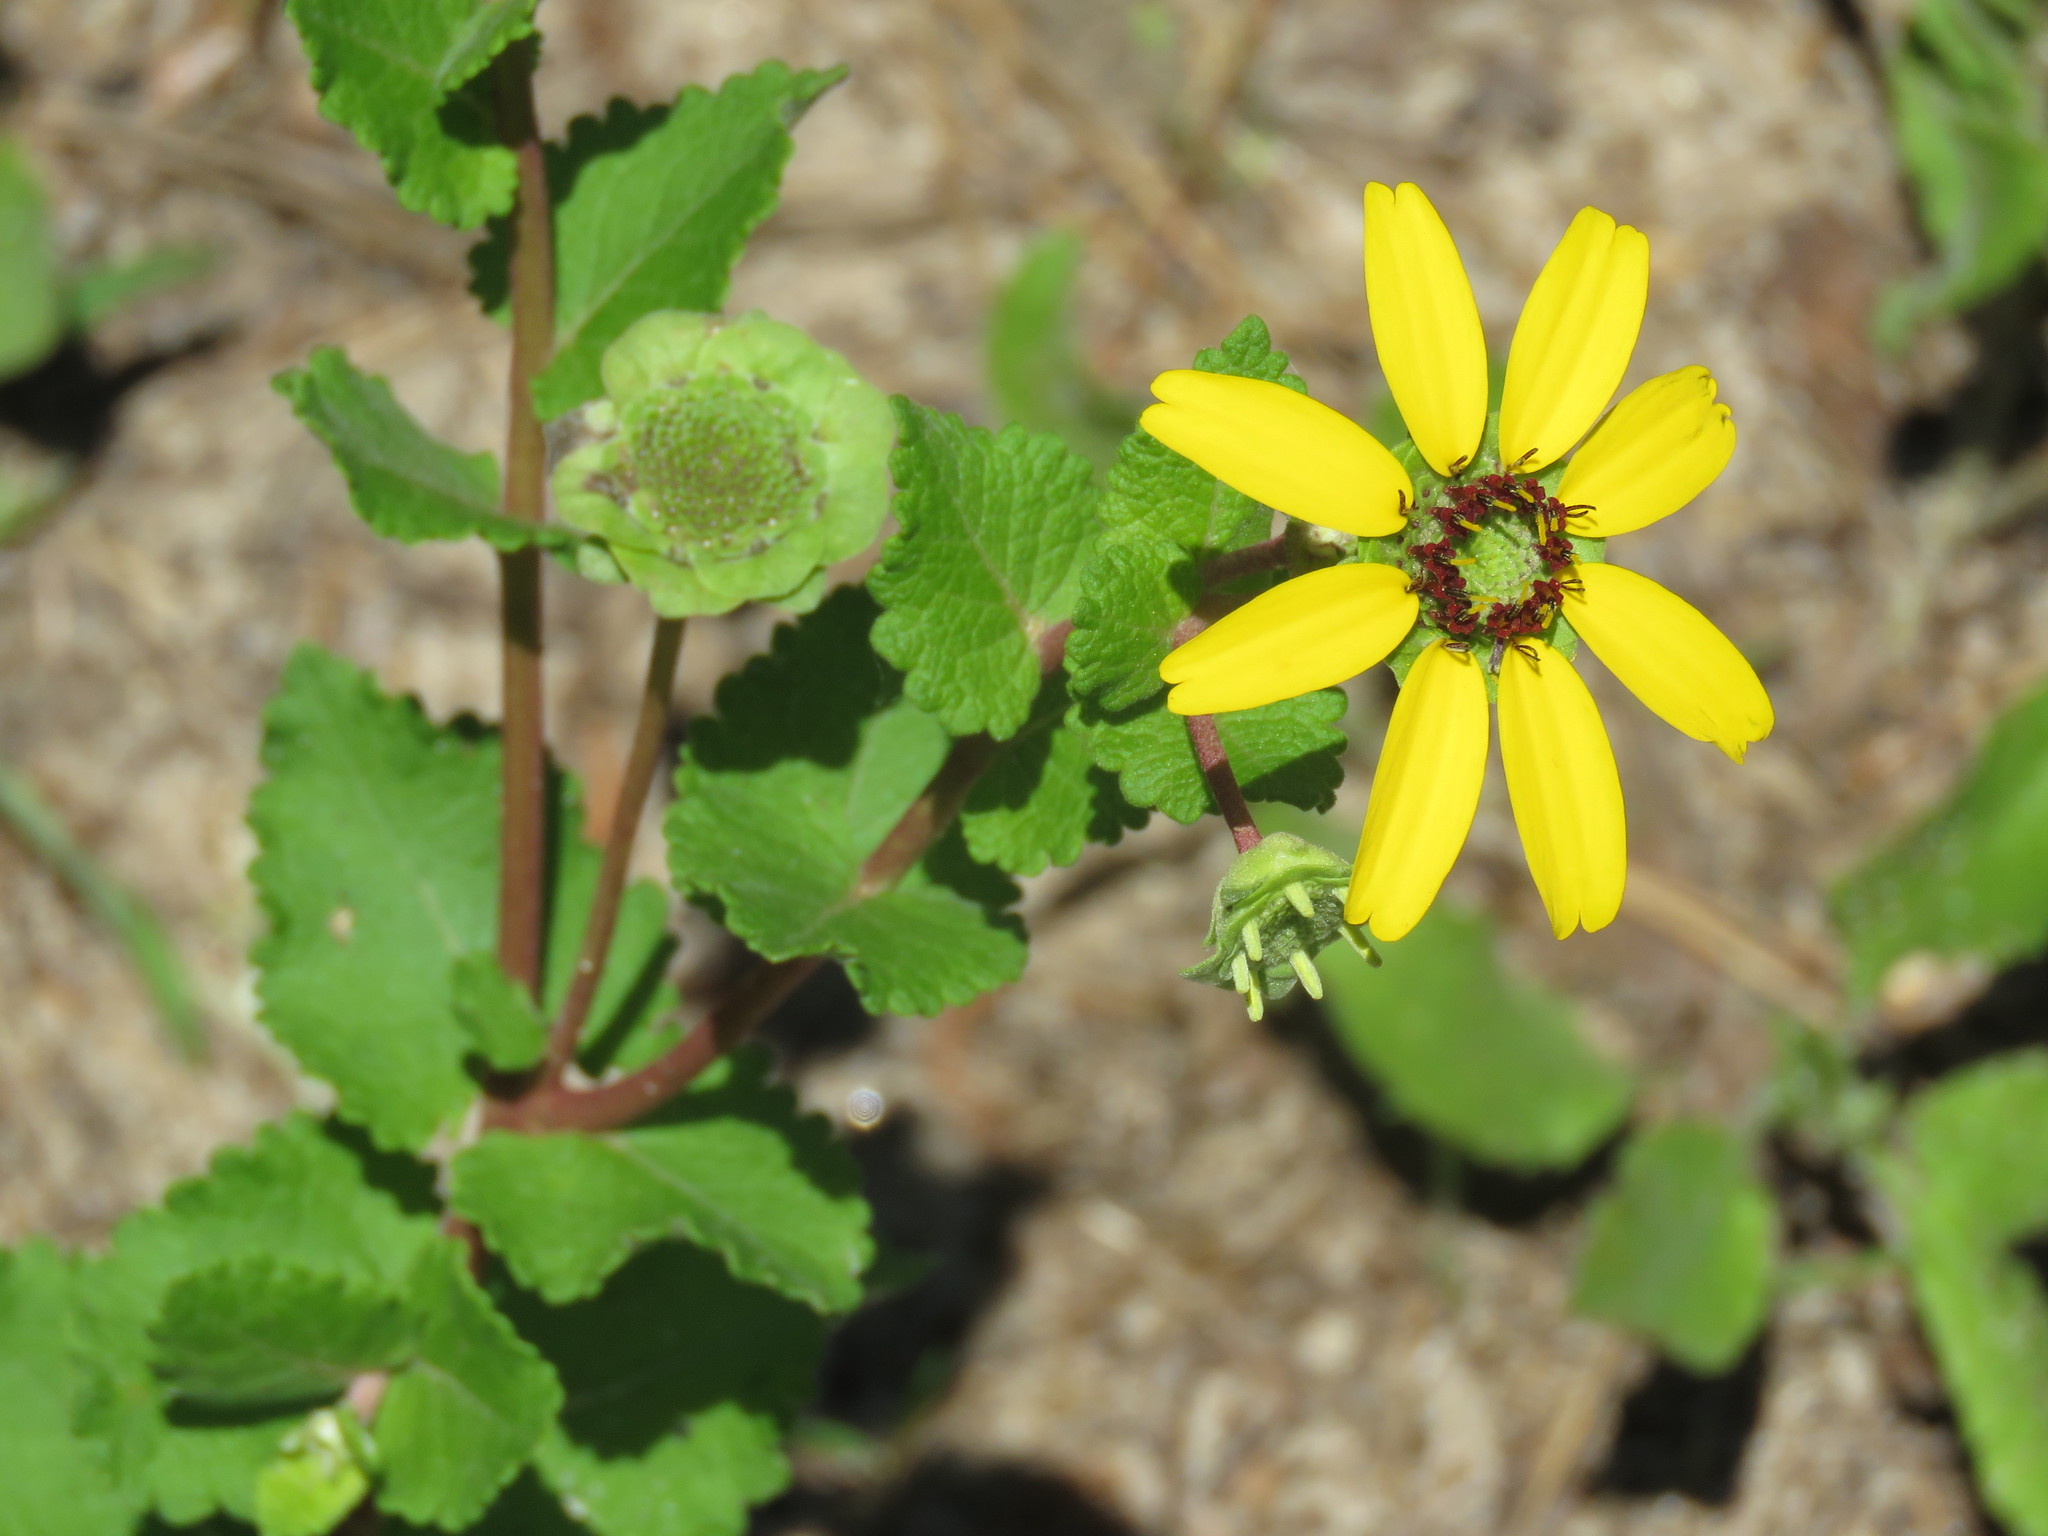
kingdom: Plantae
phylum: Tracheophyta
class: Magnoliopsida
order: Asterales
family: Asteraceae
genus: Berlandiera
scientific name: Berlandiera pumila
